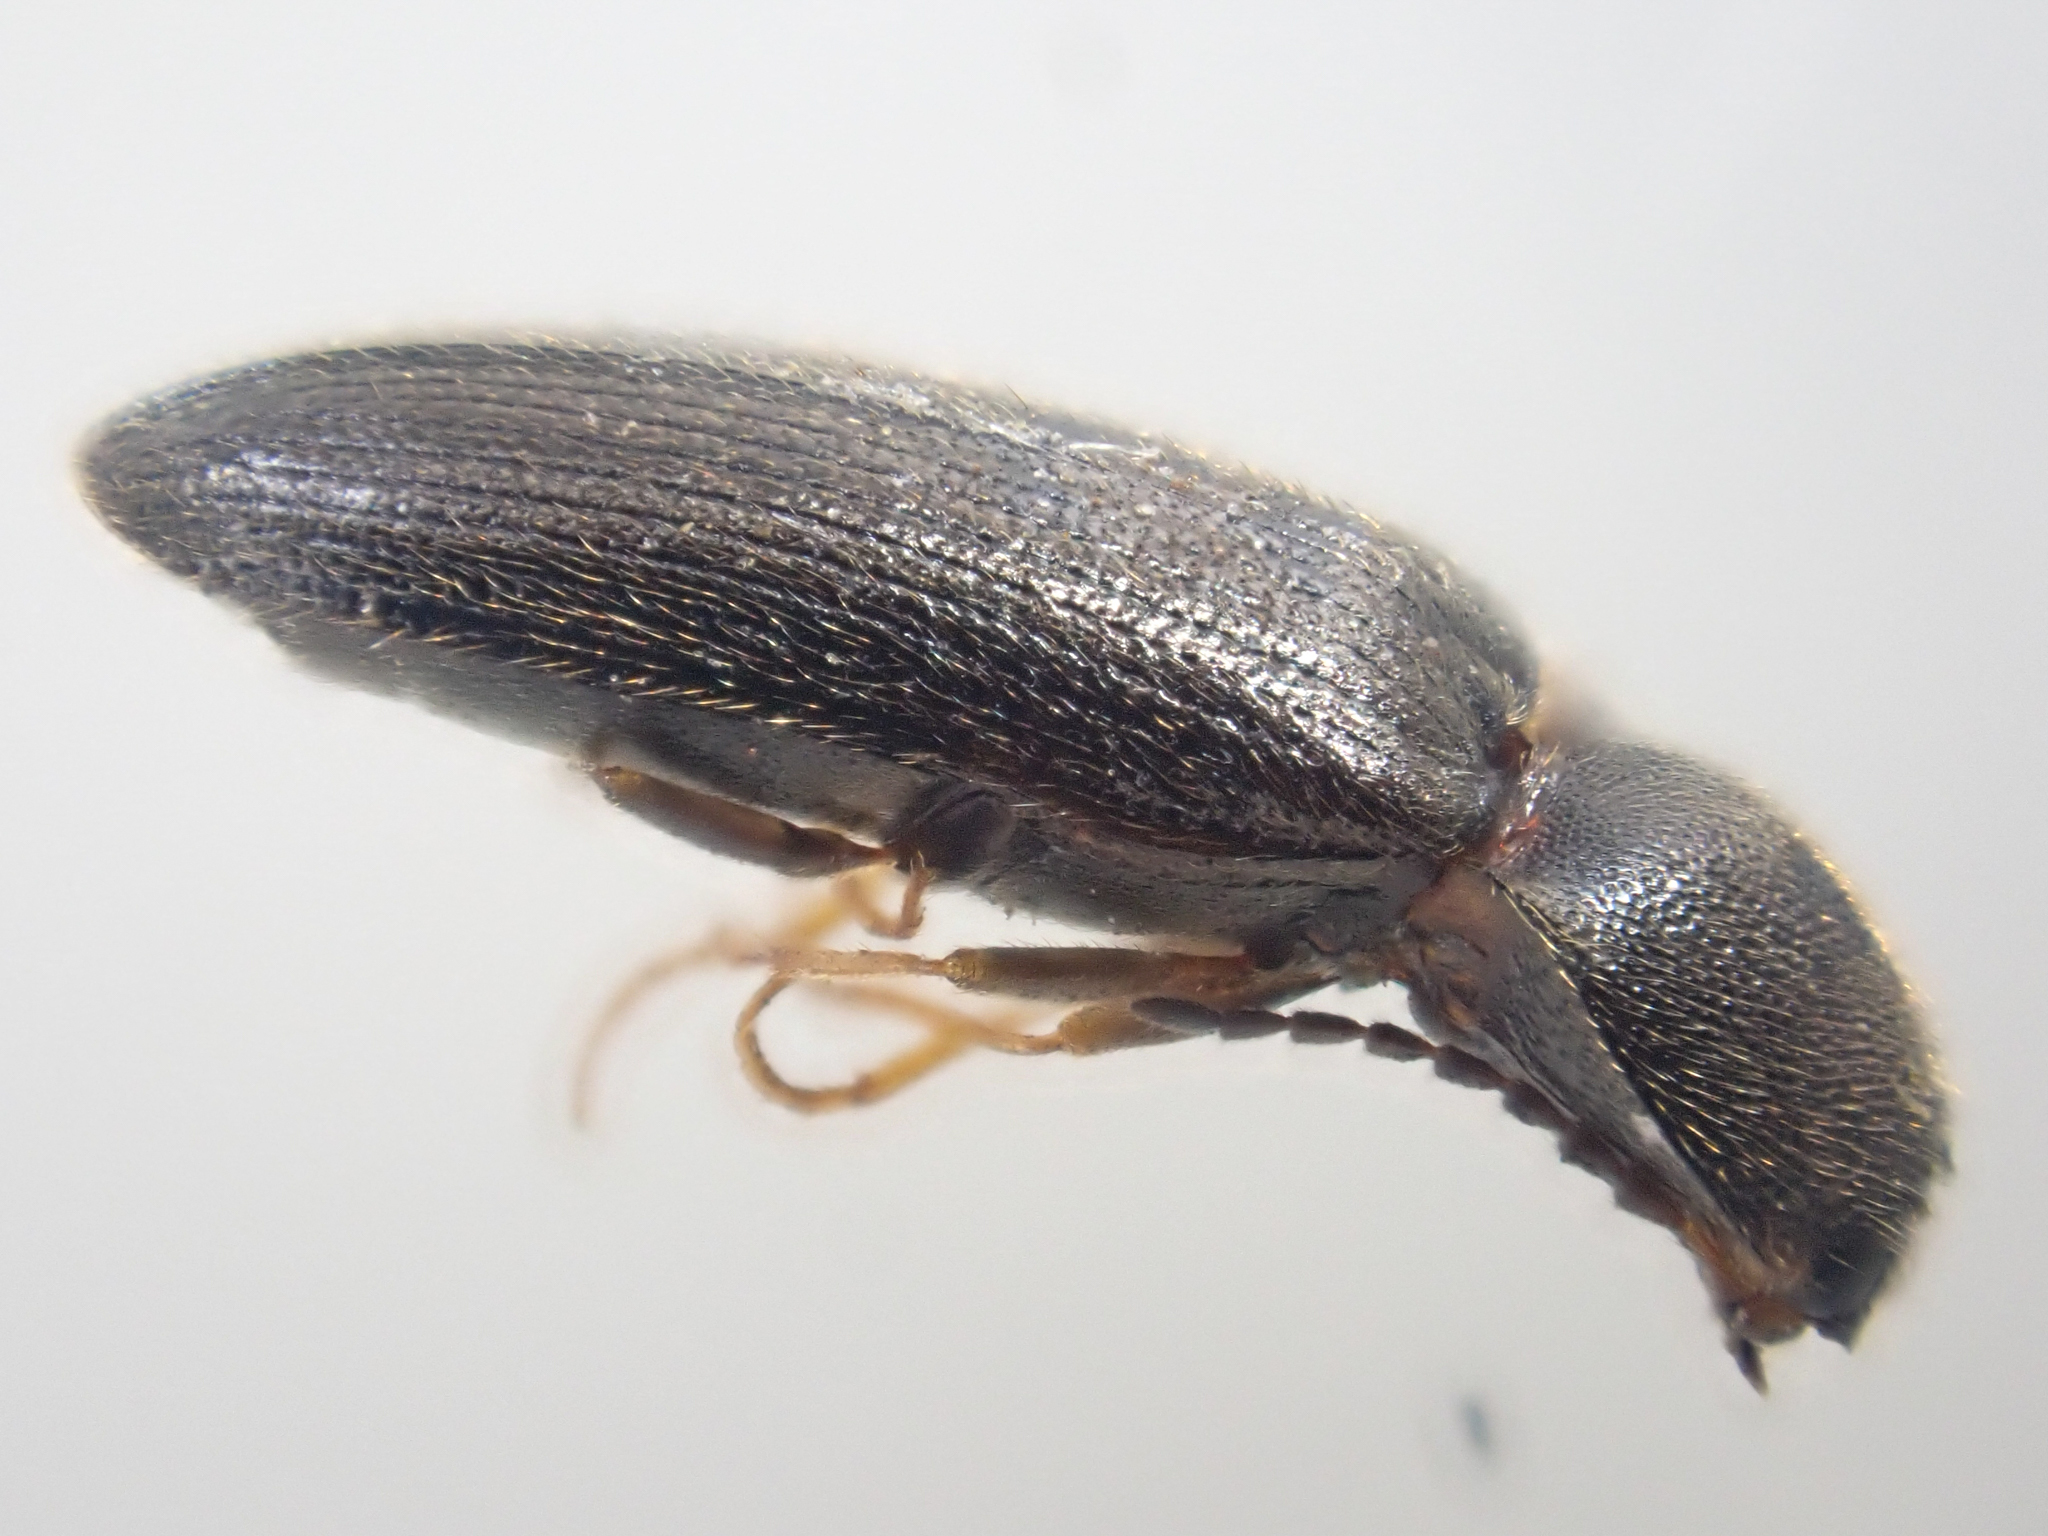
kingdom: Animalia
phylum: Arthropoda
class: Insecta
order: Coleoptera
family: Elateridae
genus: Tetralimonius
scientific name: Tetralimonius
